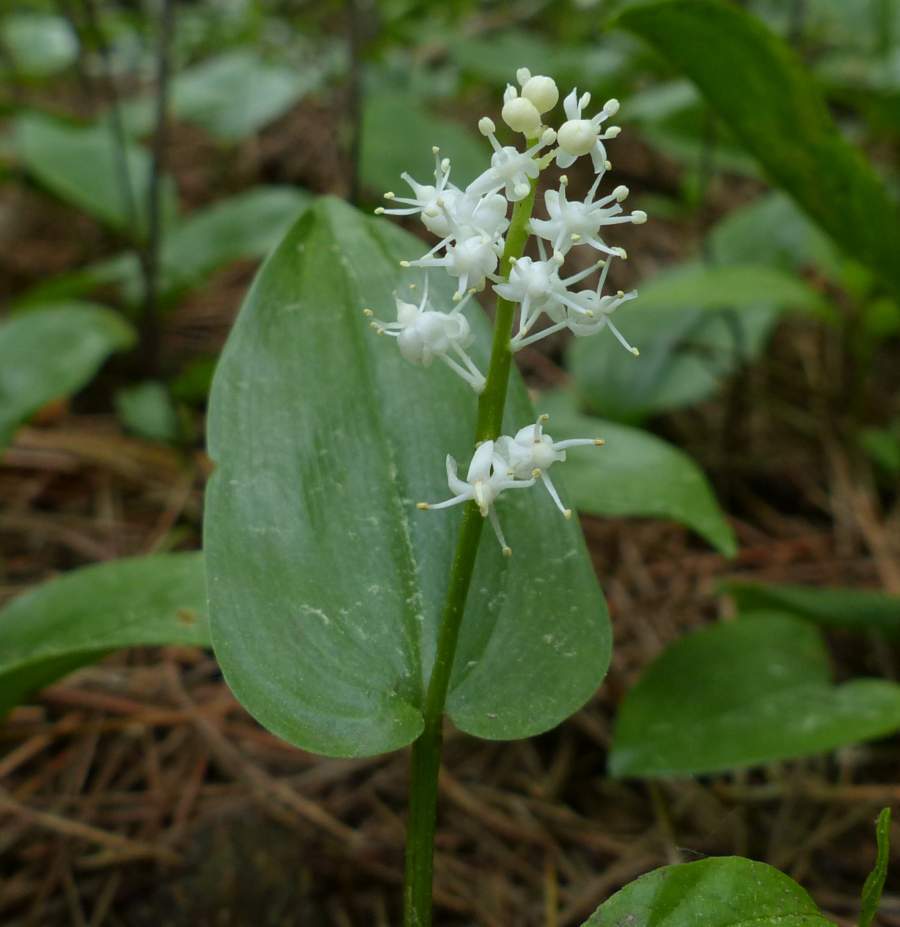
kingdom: Plantae
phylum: Tracheophyta
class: Liliopsida
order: Asparagales
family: Asparagaceae
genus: Maianthemum
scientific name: Maianthemum canadense
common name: False lily-of-the-valley
